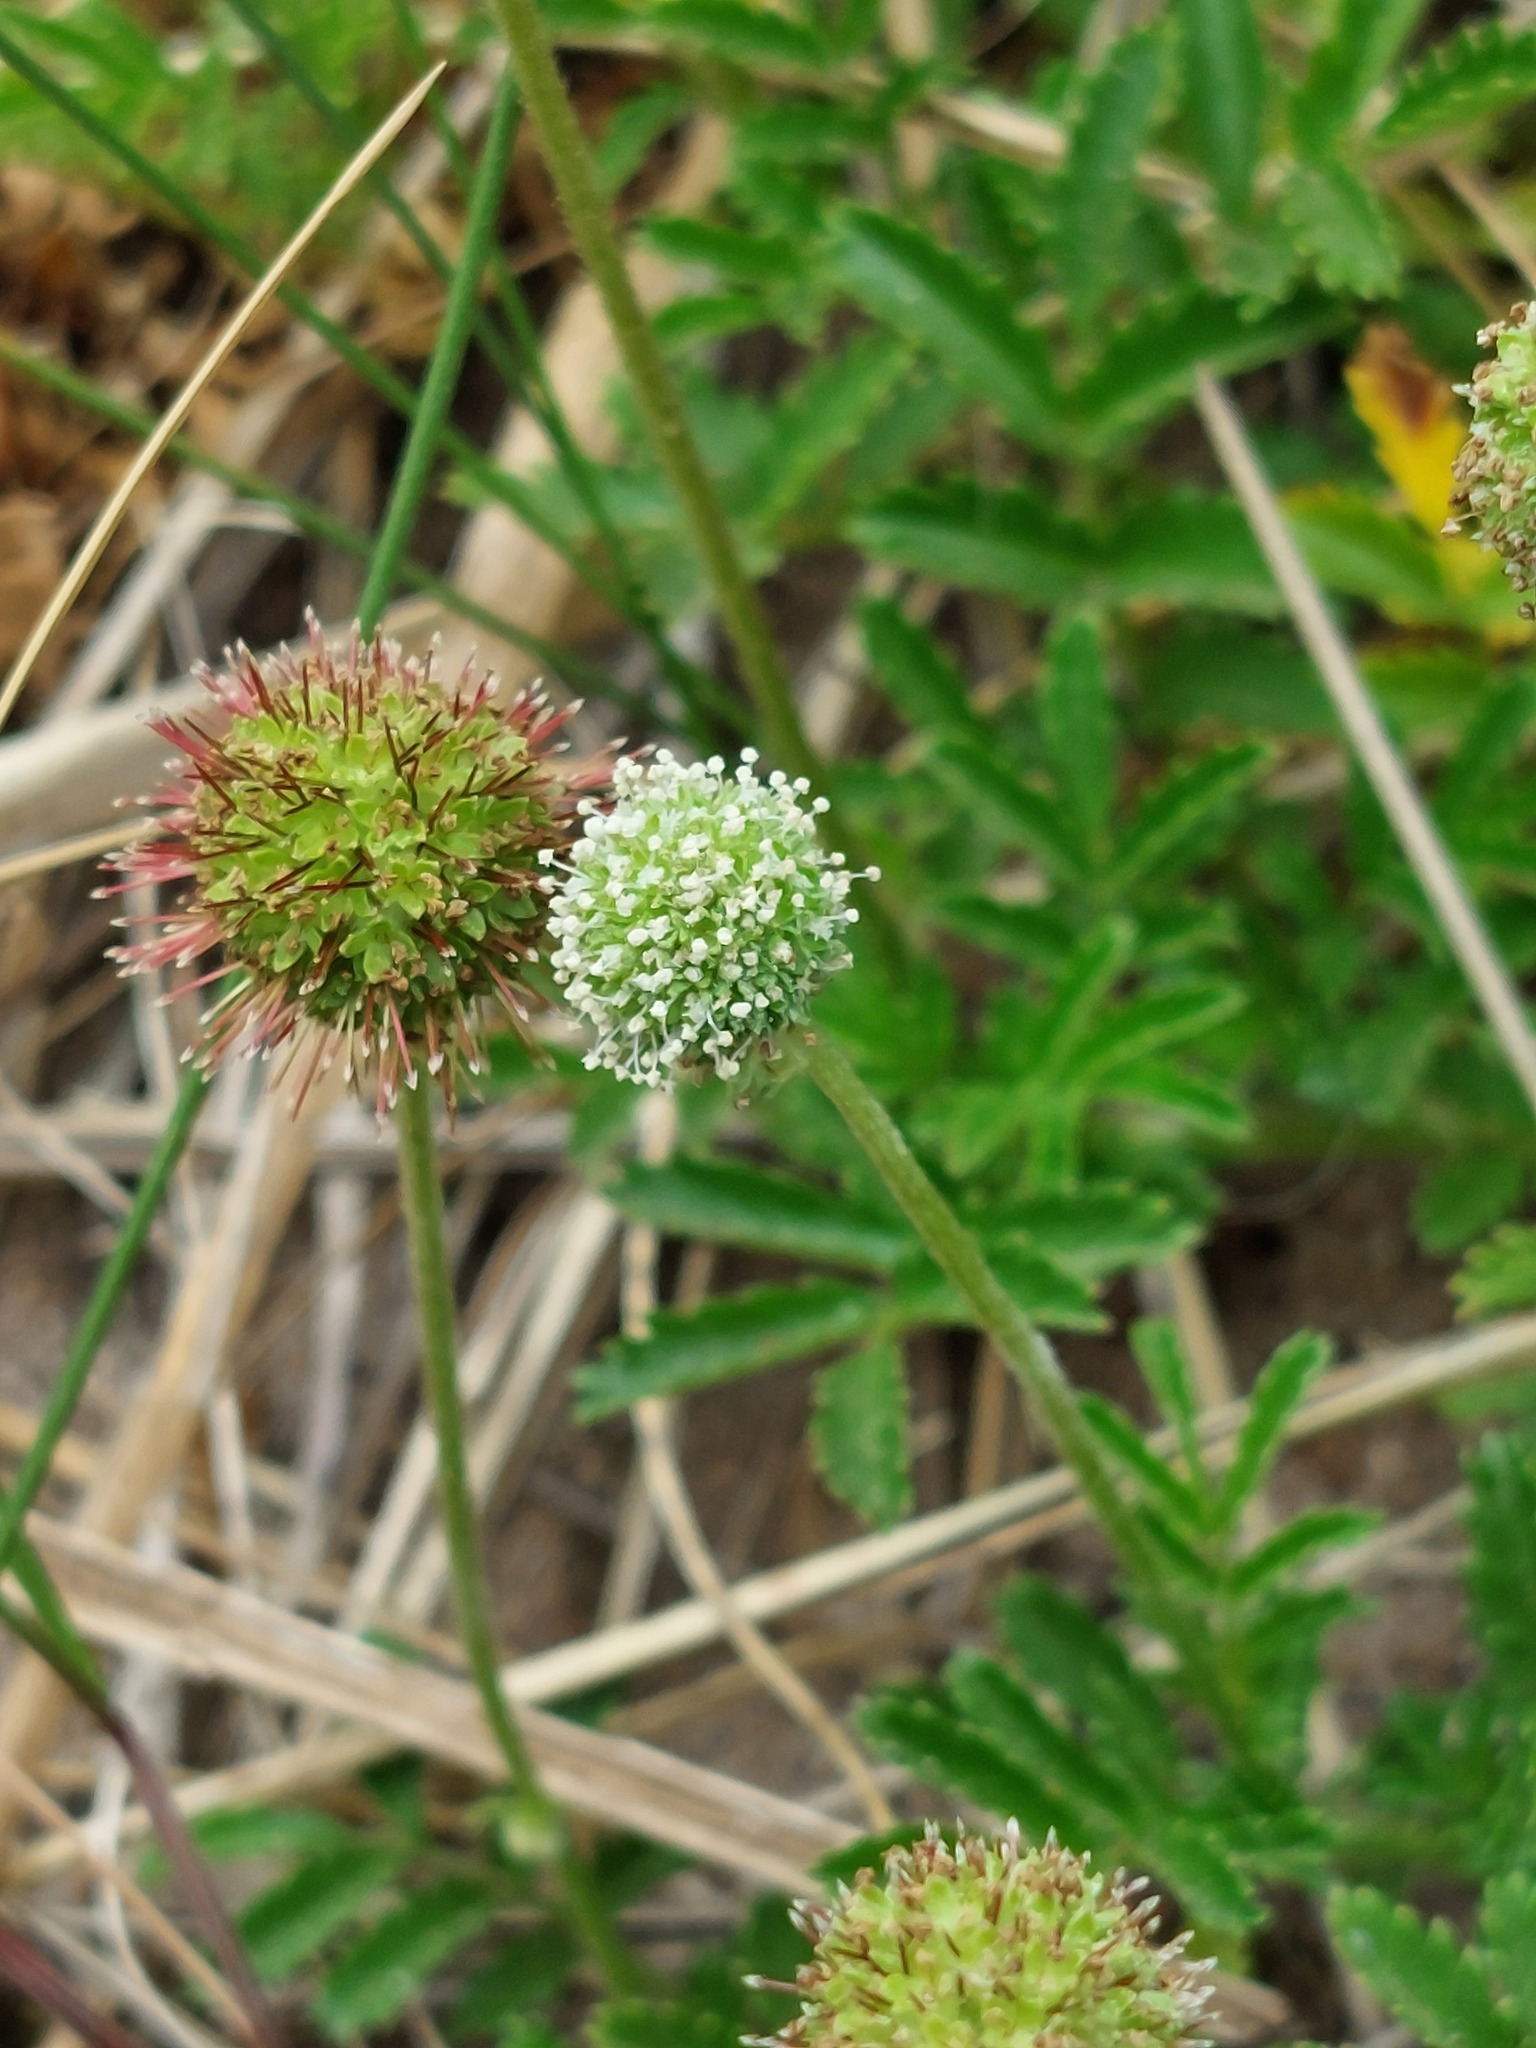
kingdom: Plantae
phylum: Tracheophyta
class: Magnoliopsida
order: Rosales
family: Rosaceae
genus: Acaena
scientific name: Acaena novae-zelandiae
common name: Pirri-pirri-bur
